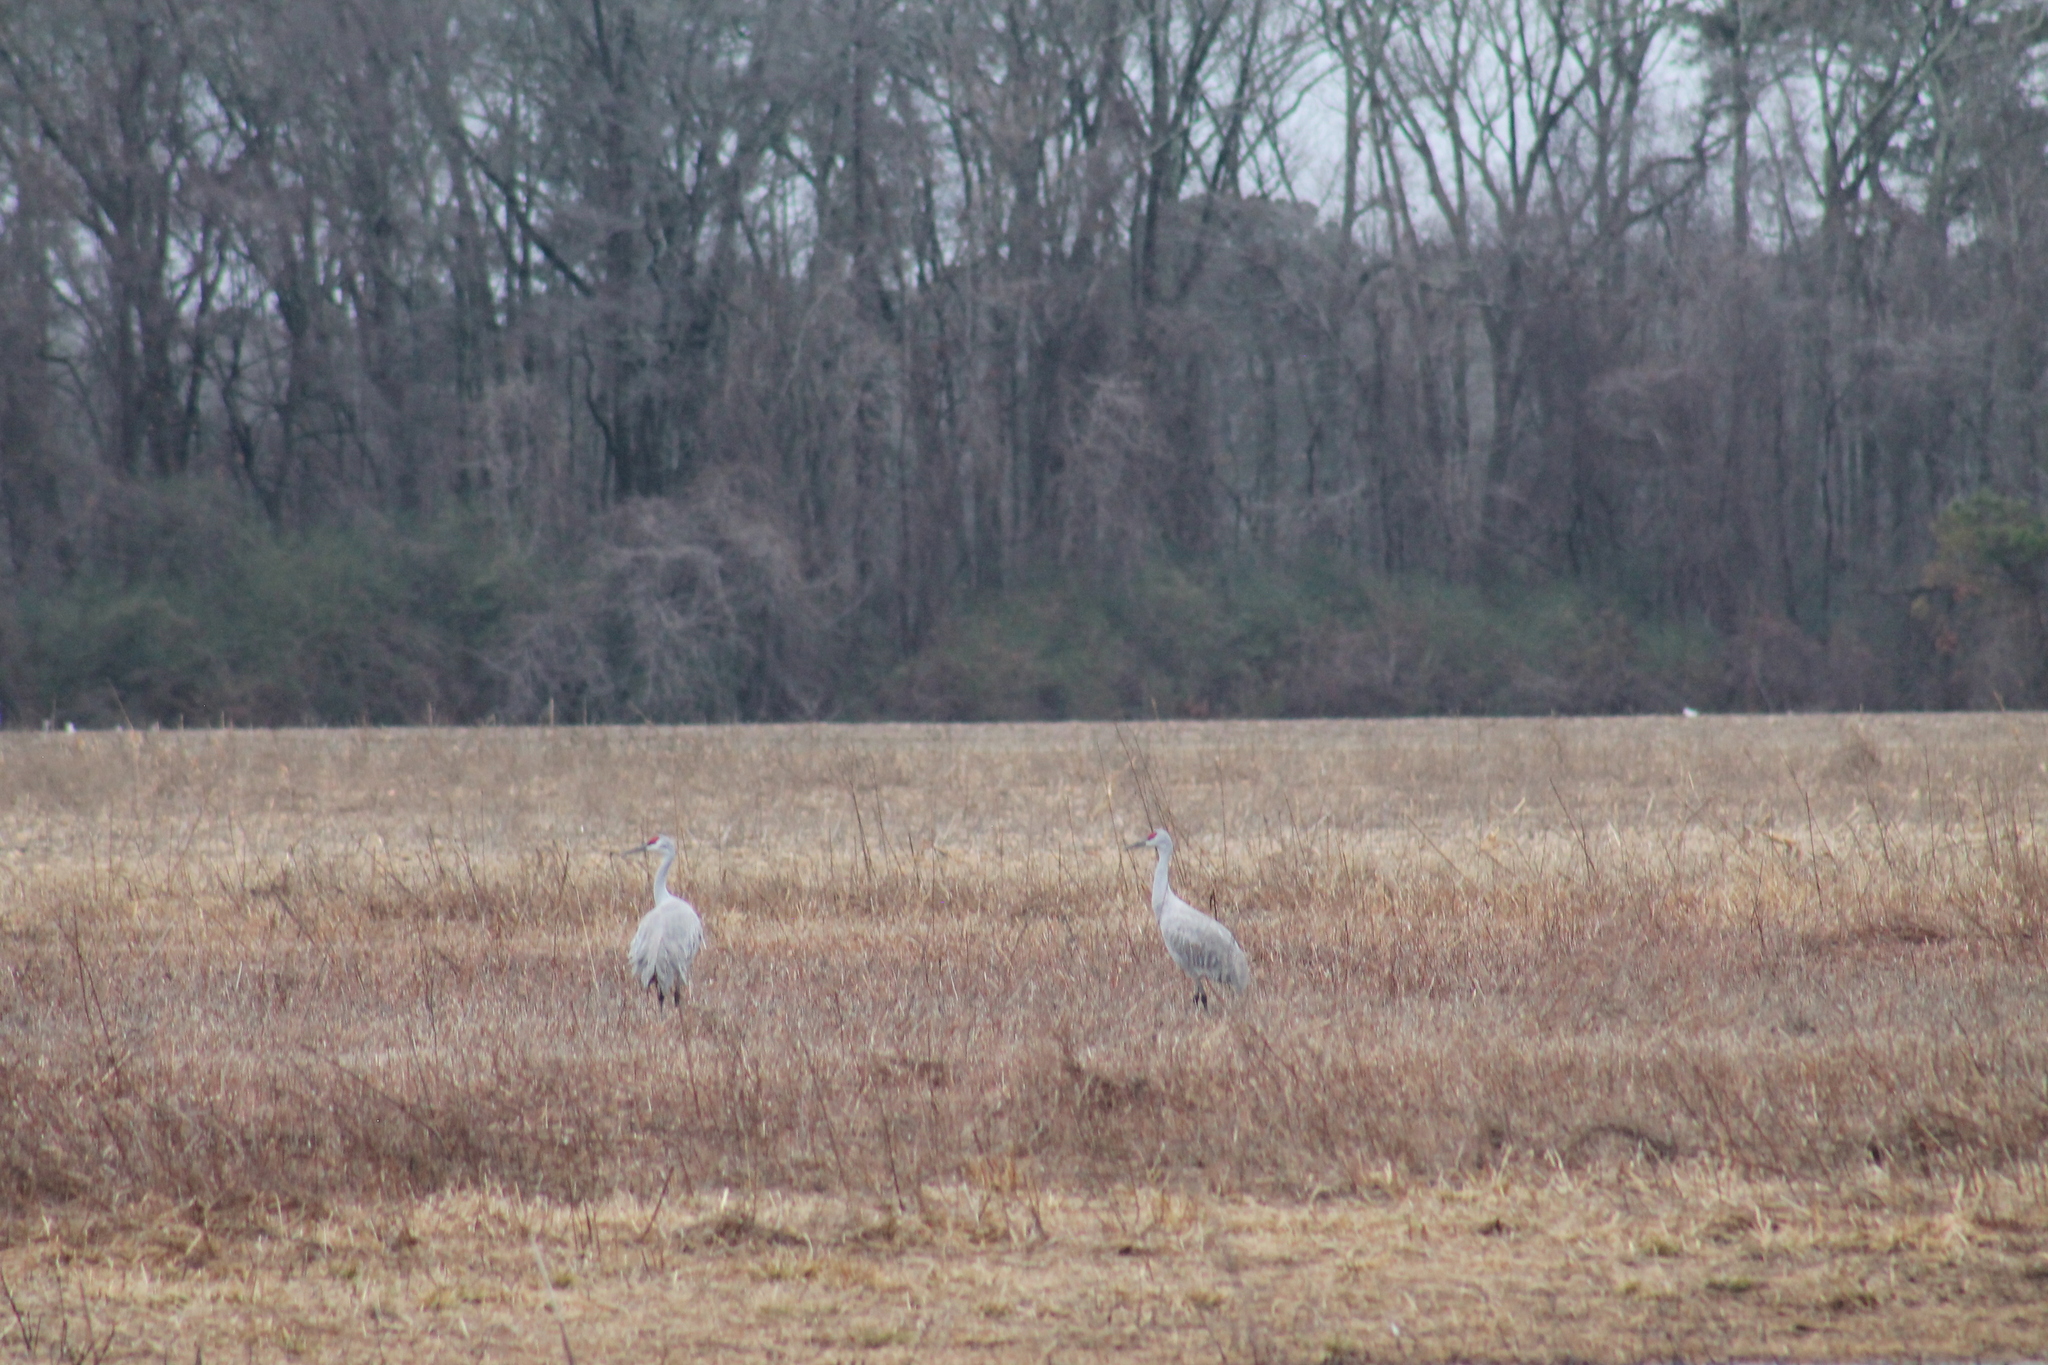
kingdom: Animalia
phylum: Chordata
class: Aves
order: Gruiformes
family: Gruidae
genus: Grus
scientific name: Grus canadensis
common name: Sandhill crane
